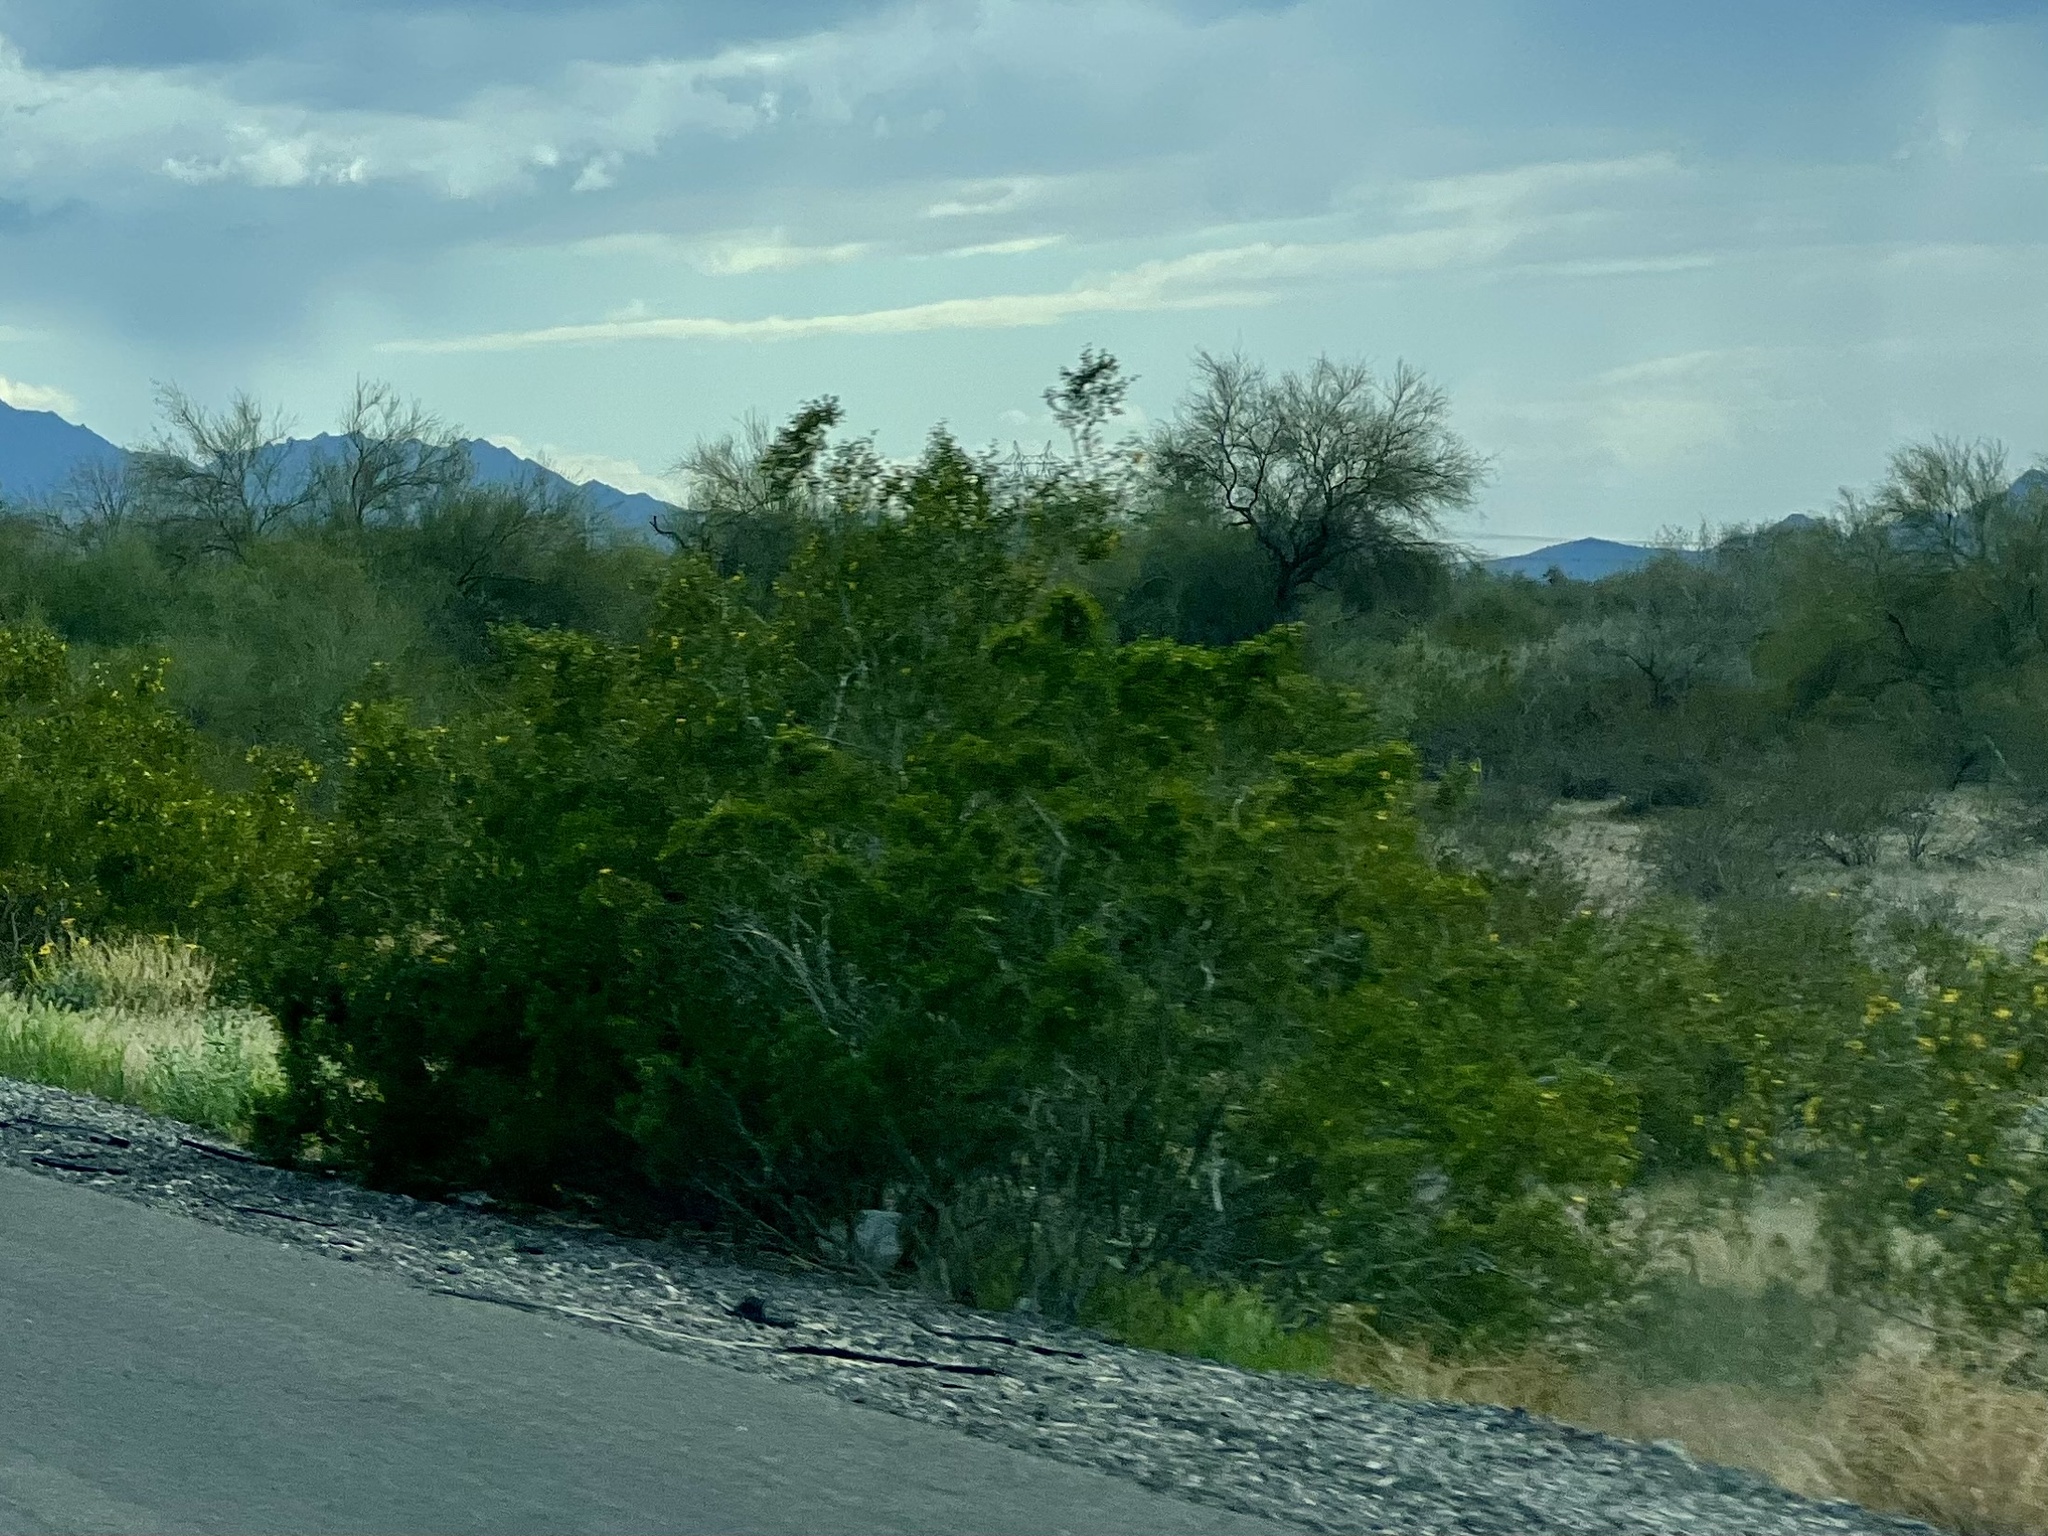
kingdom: Plantae
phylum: Tracheophyta
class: Magnoliopsida
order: Zygophyllales
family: Zygophyllaceae
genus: Larrea
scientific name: Larrea tridentata
